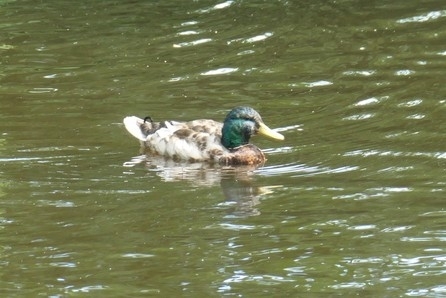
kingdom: Animalia
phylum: Chordata
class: Aves
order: Anseriformes
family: Anatidae
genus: Anas
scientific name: Anas platyrhynchos
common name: Mallard
